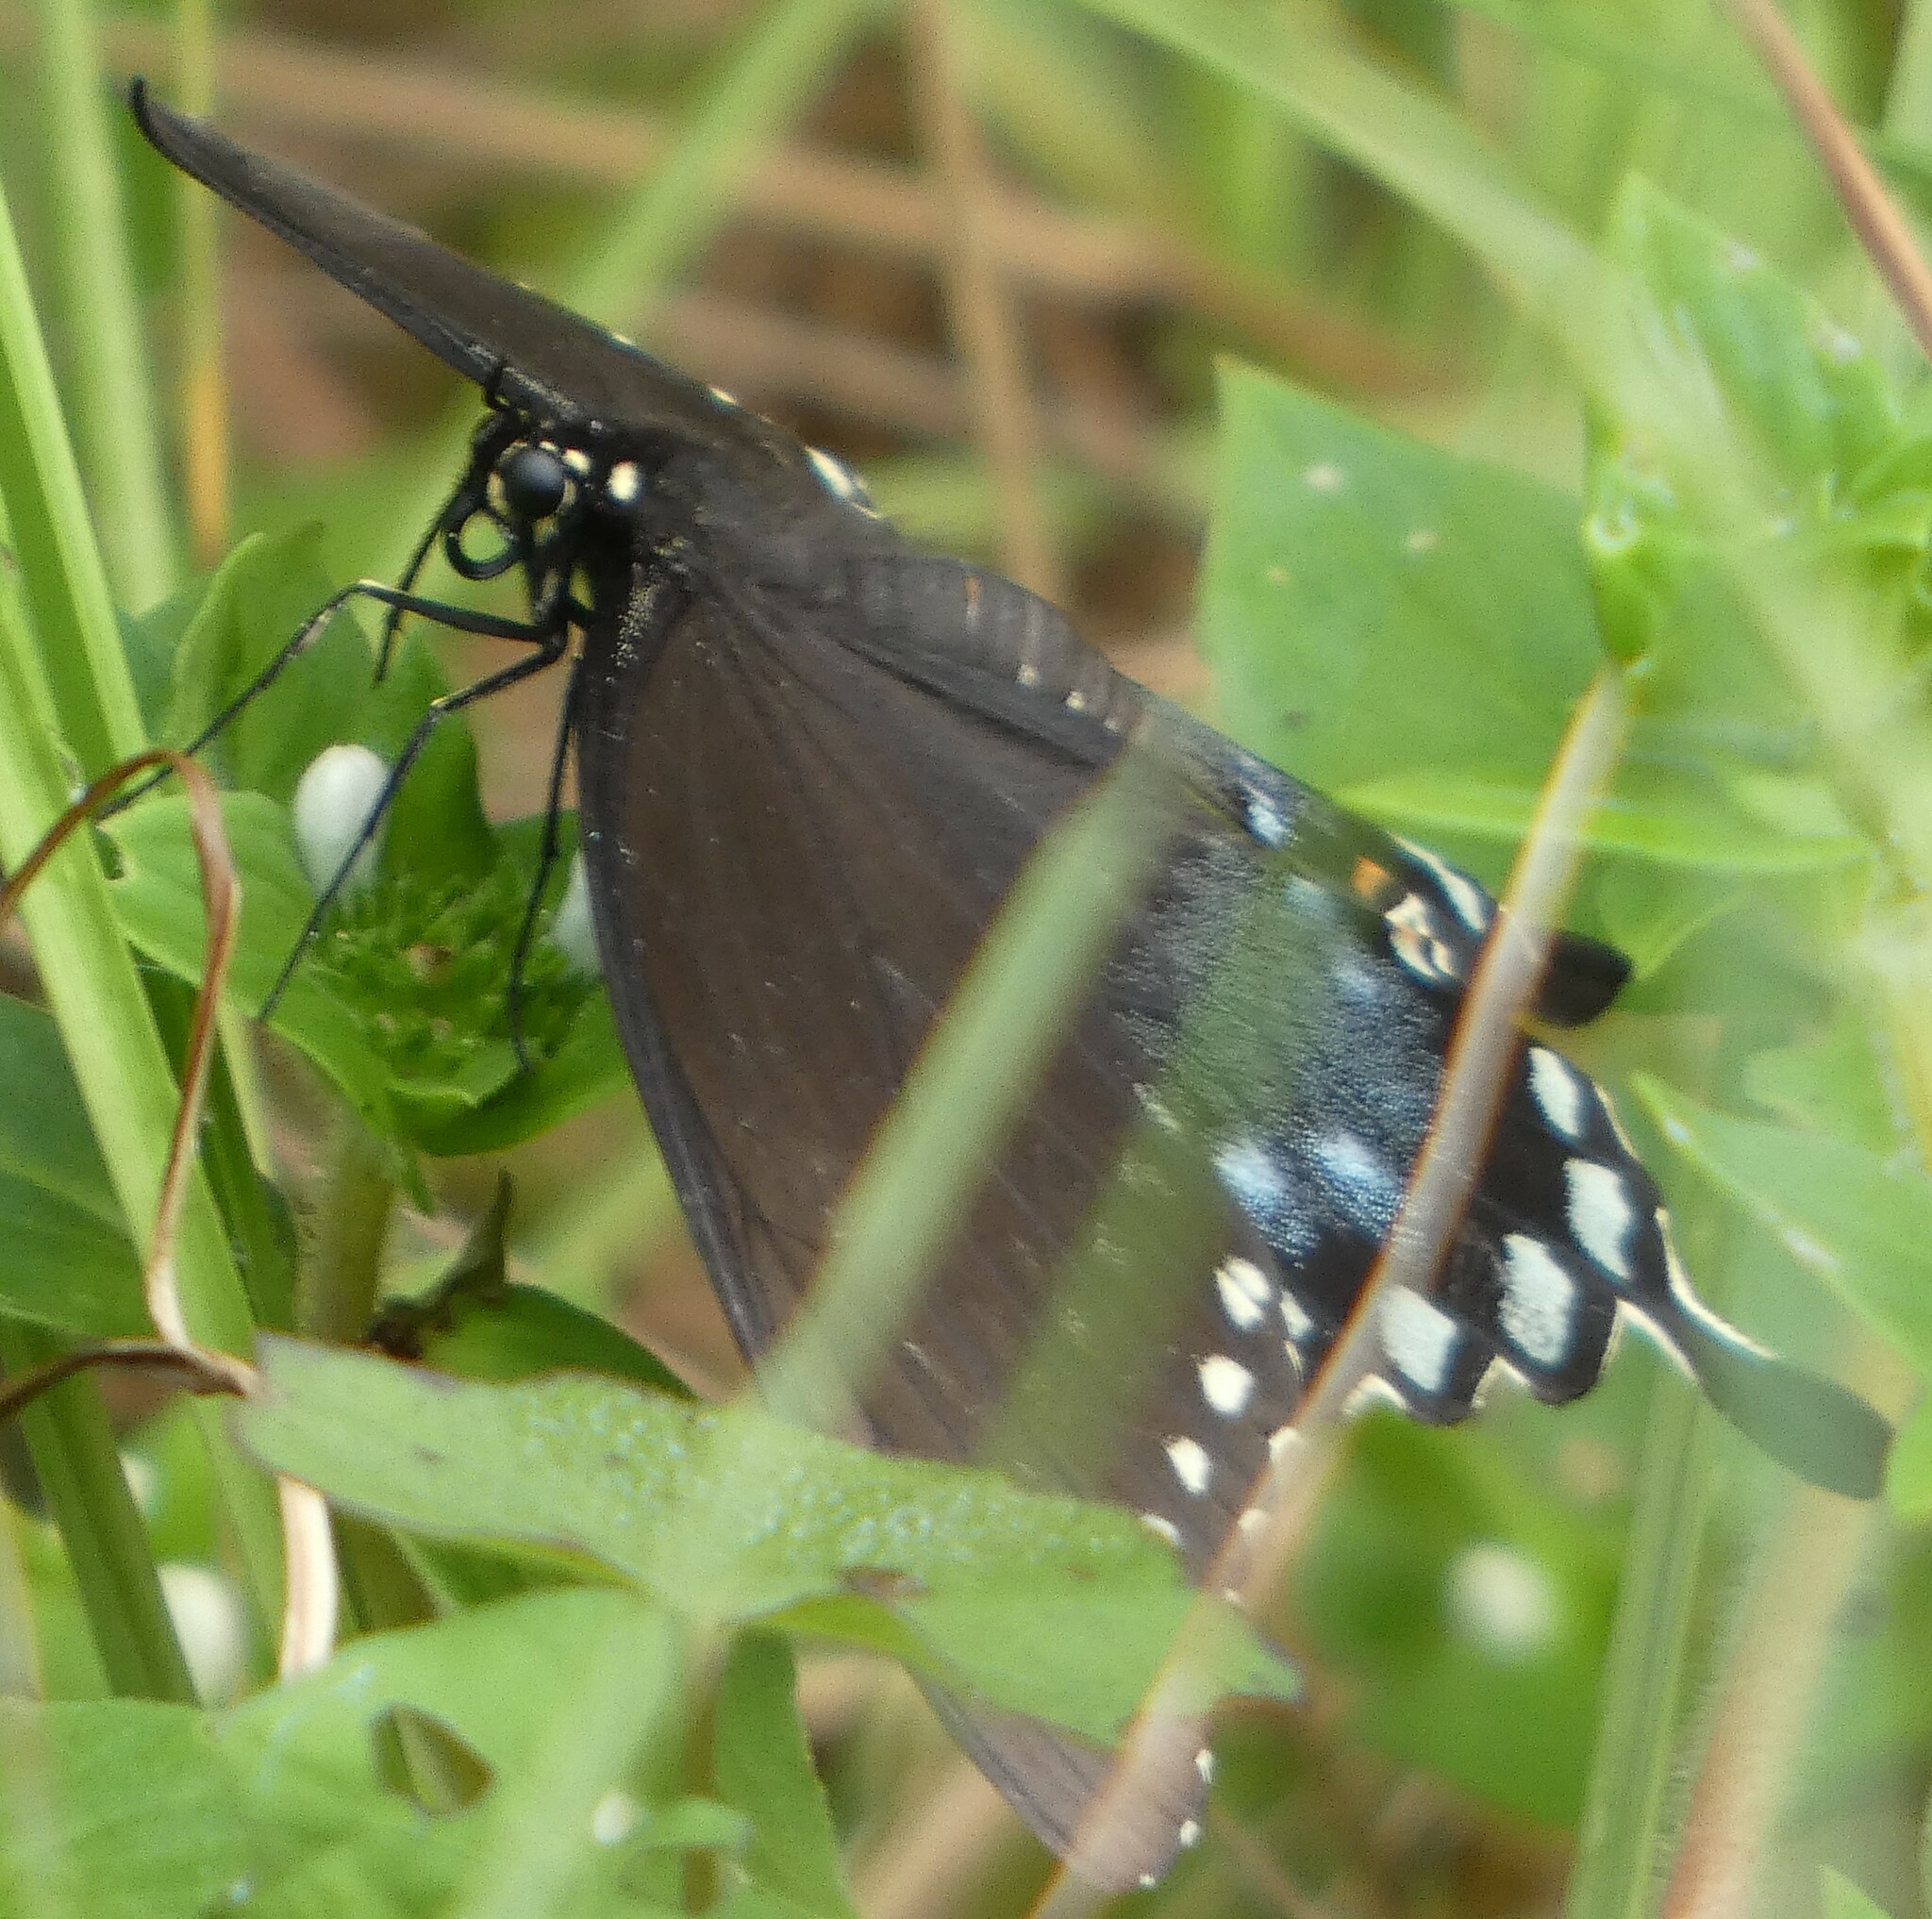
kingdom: Animalia
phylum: Arthropoda
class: Insecta
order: Lepidoptera
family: Papilionidae
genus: Papilio
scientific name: Papilio troilus
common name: Spicebush swallowtail
